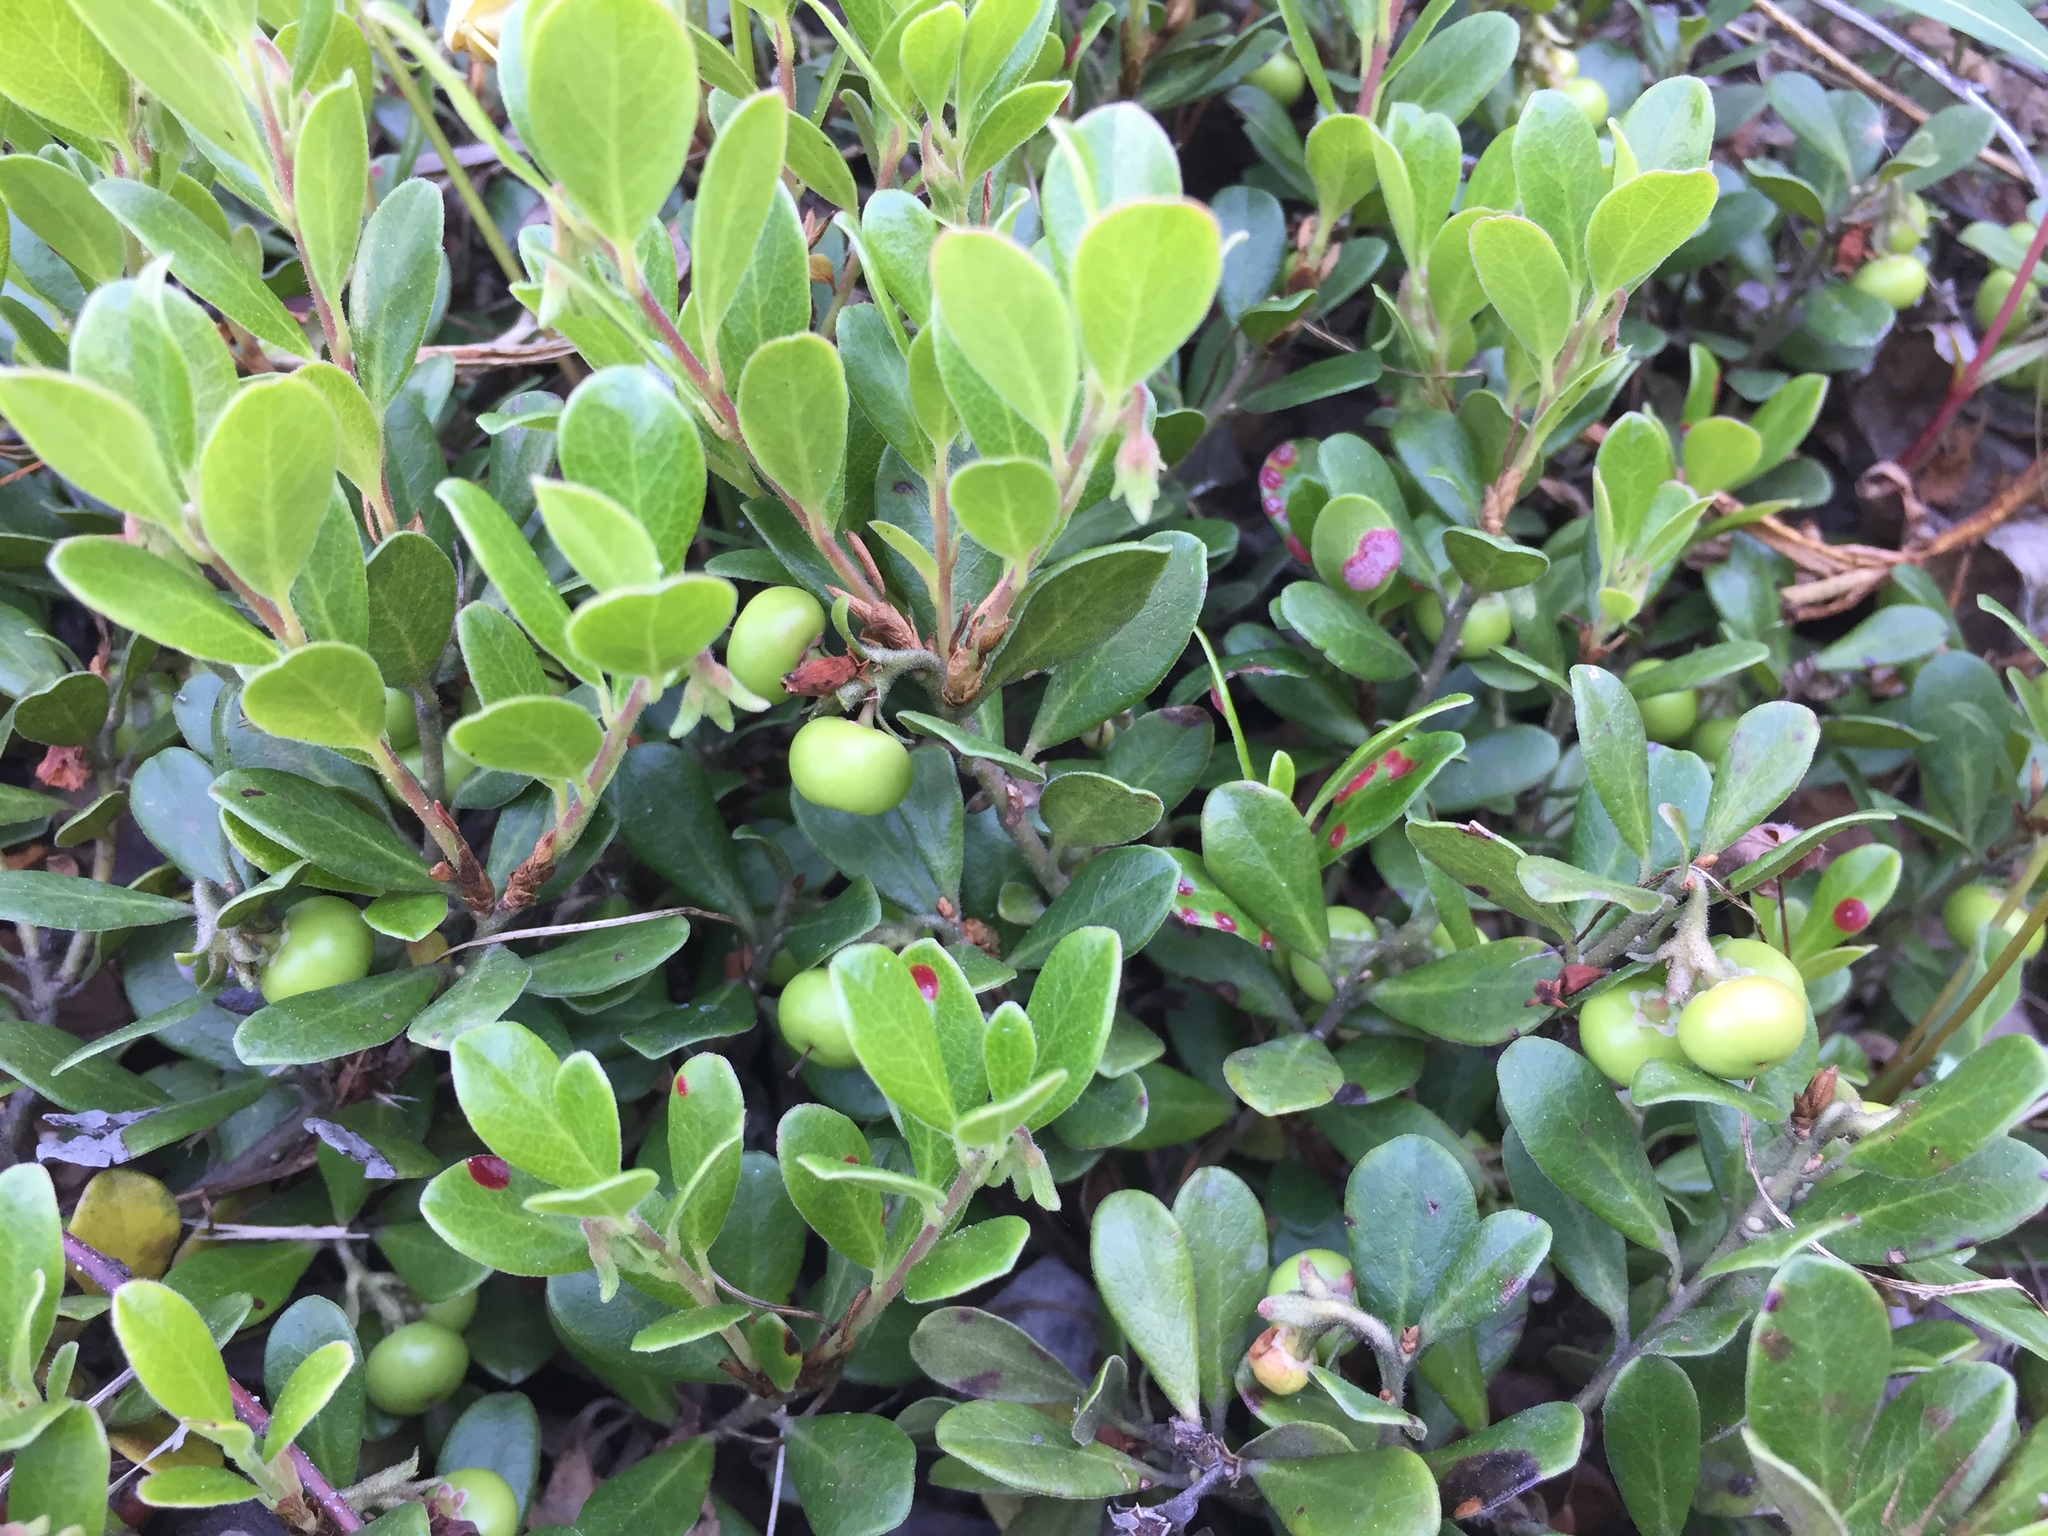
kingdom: Plantae
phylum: Tracheophyta
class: Magnoliopsida
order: Ericales
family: Ericaceae
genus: Arctostaphylos
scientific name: Arctostaphylos uva-ursi
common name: Bearberry
